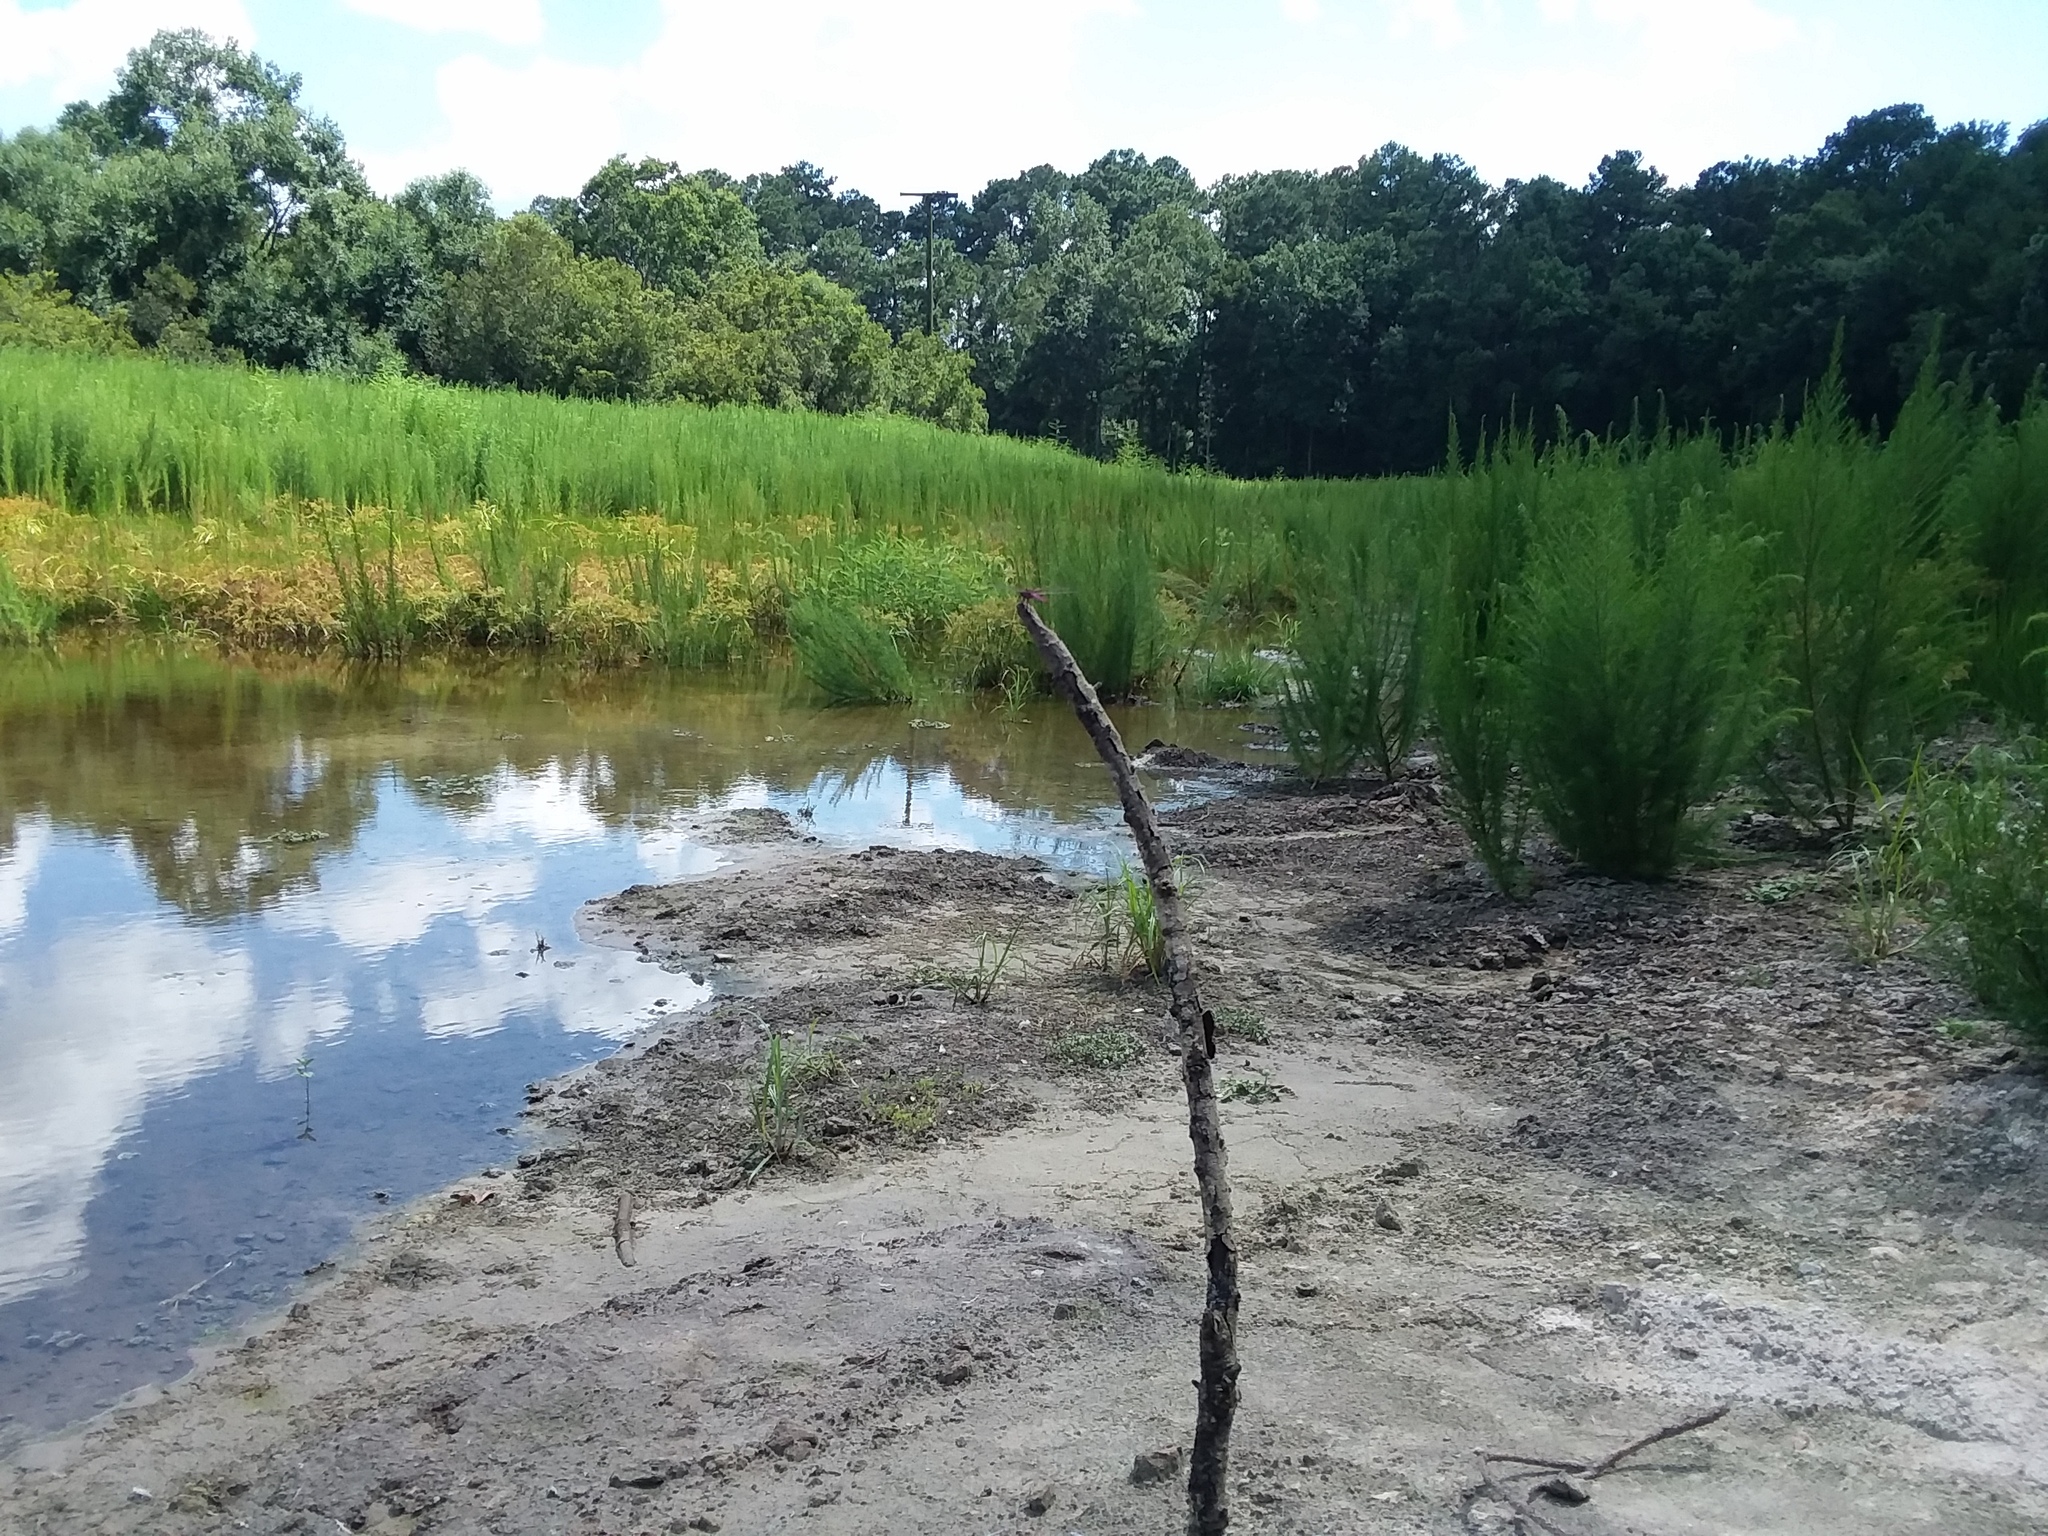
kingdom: Animalia
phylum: Arthropoda
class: Insecta
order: Odonata
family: Libellulidae
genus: Orthemis
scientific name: Orthemis ferruginea
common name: Roseate skimmer
